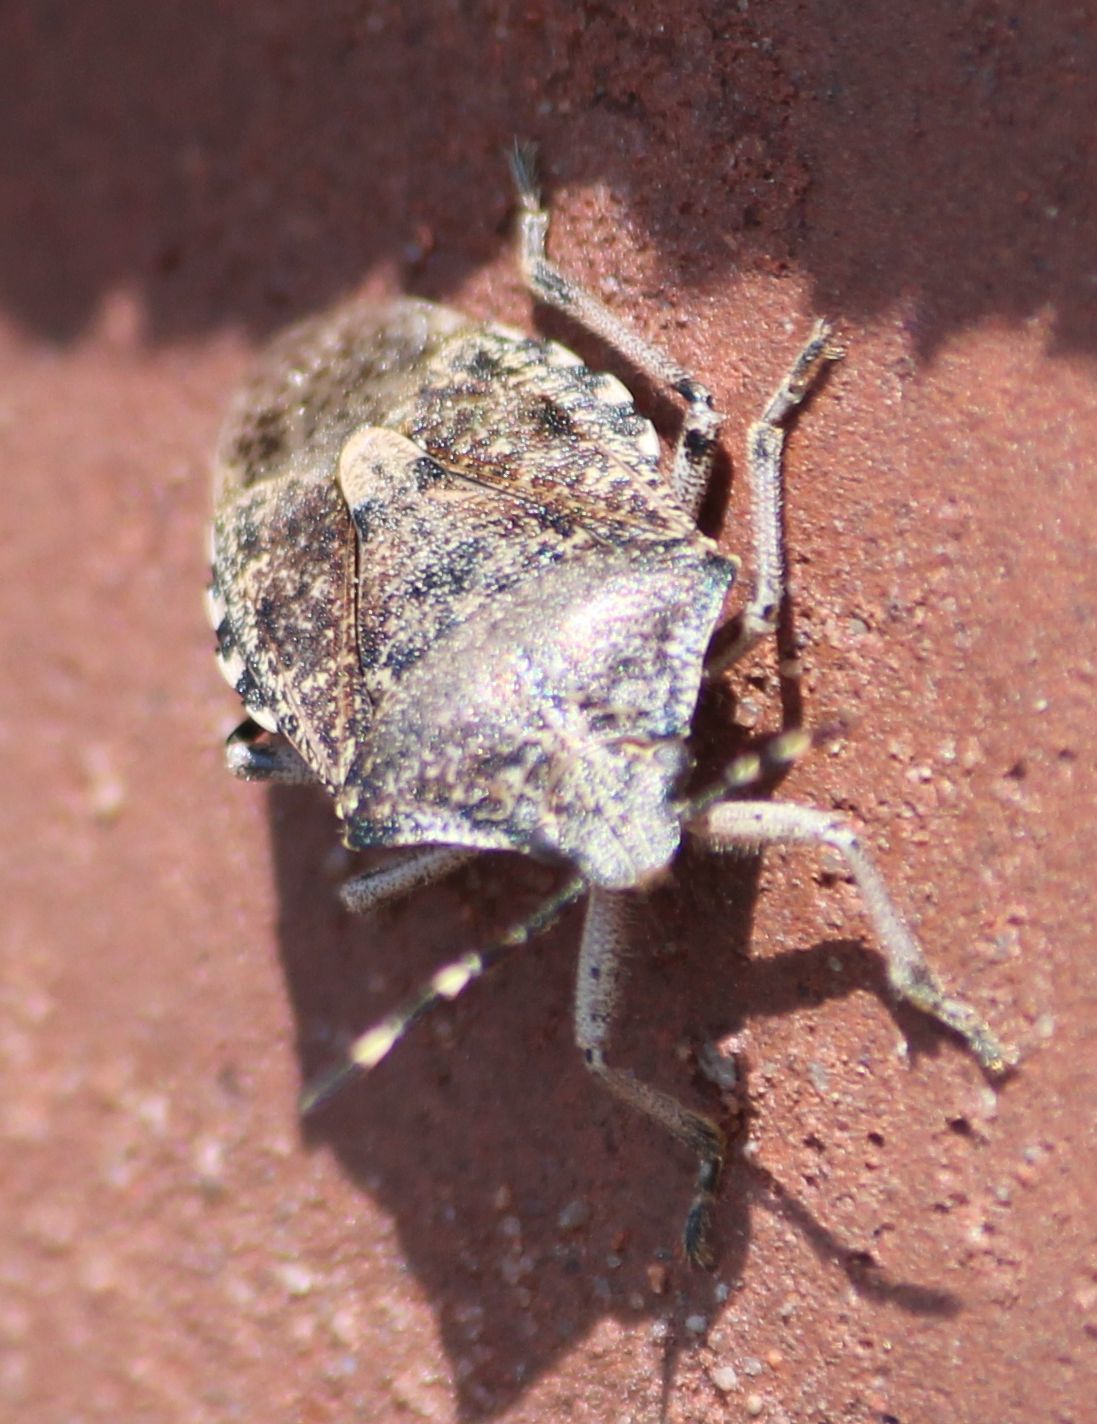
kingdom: Animalia
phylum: Arthropoda
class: Insecta
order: Hemiptera
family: Pentatomidae
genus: Rhaphigaster
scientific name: Rhaphigaster nebulosa
